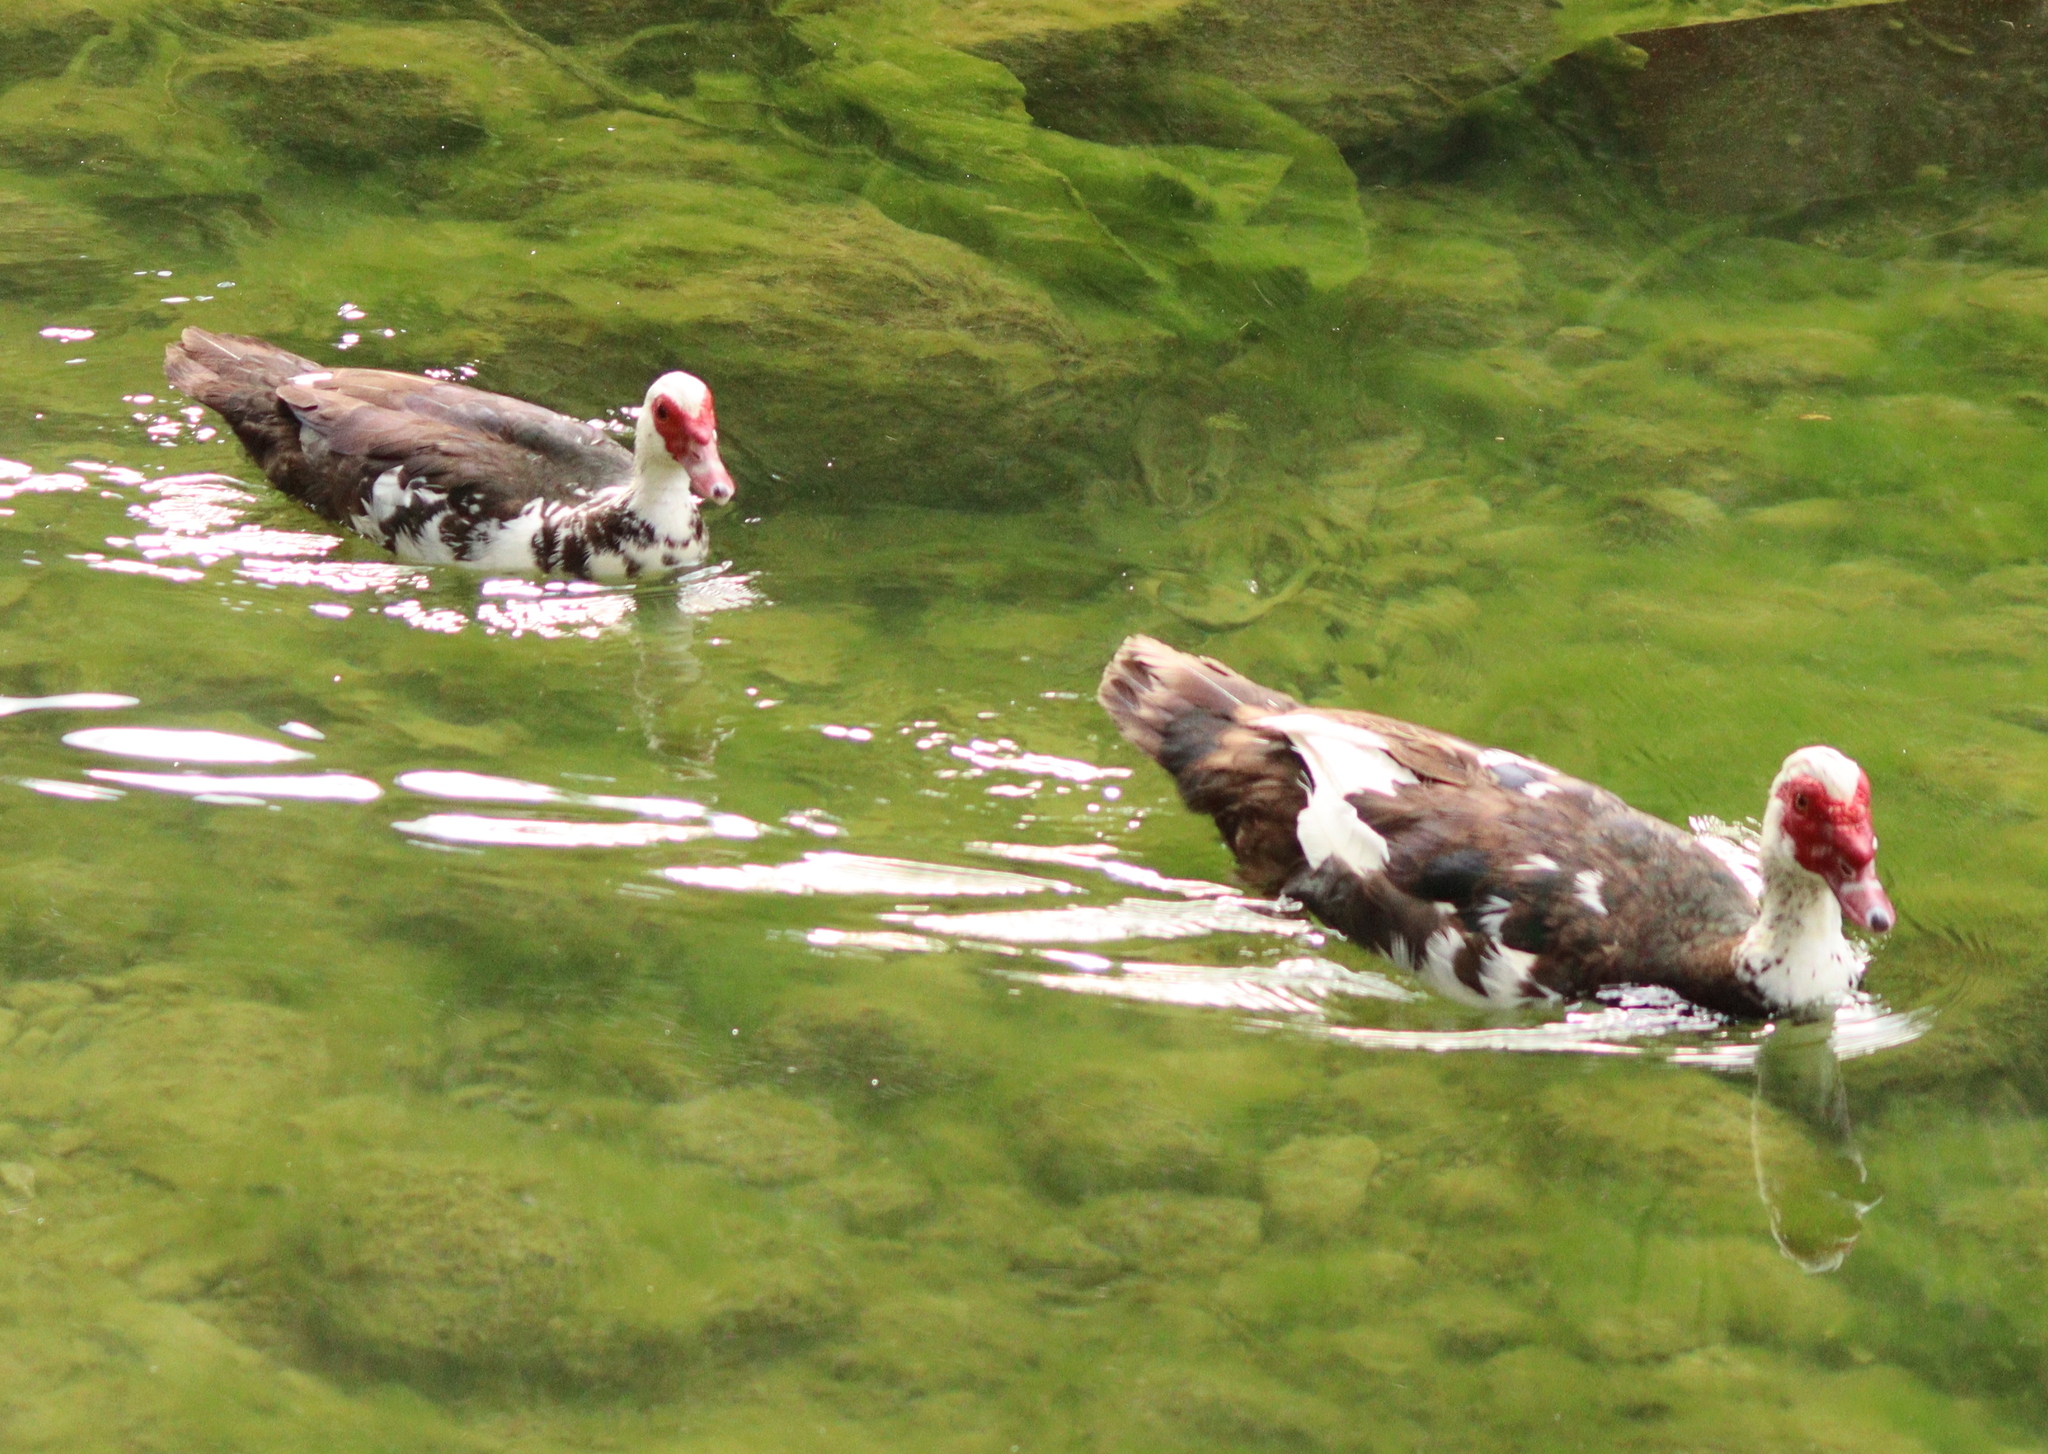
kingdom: Animalia
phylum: Chordata
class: Aves
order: Anseriformes
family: Anatidae
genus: Cairina
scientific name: Cairina moschata
